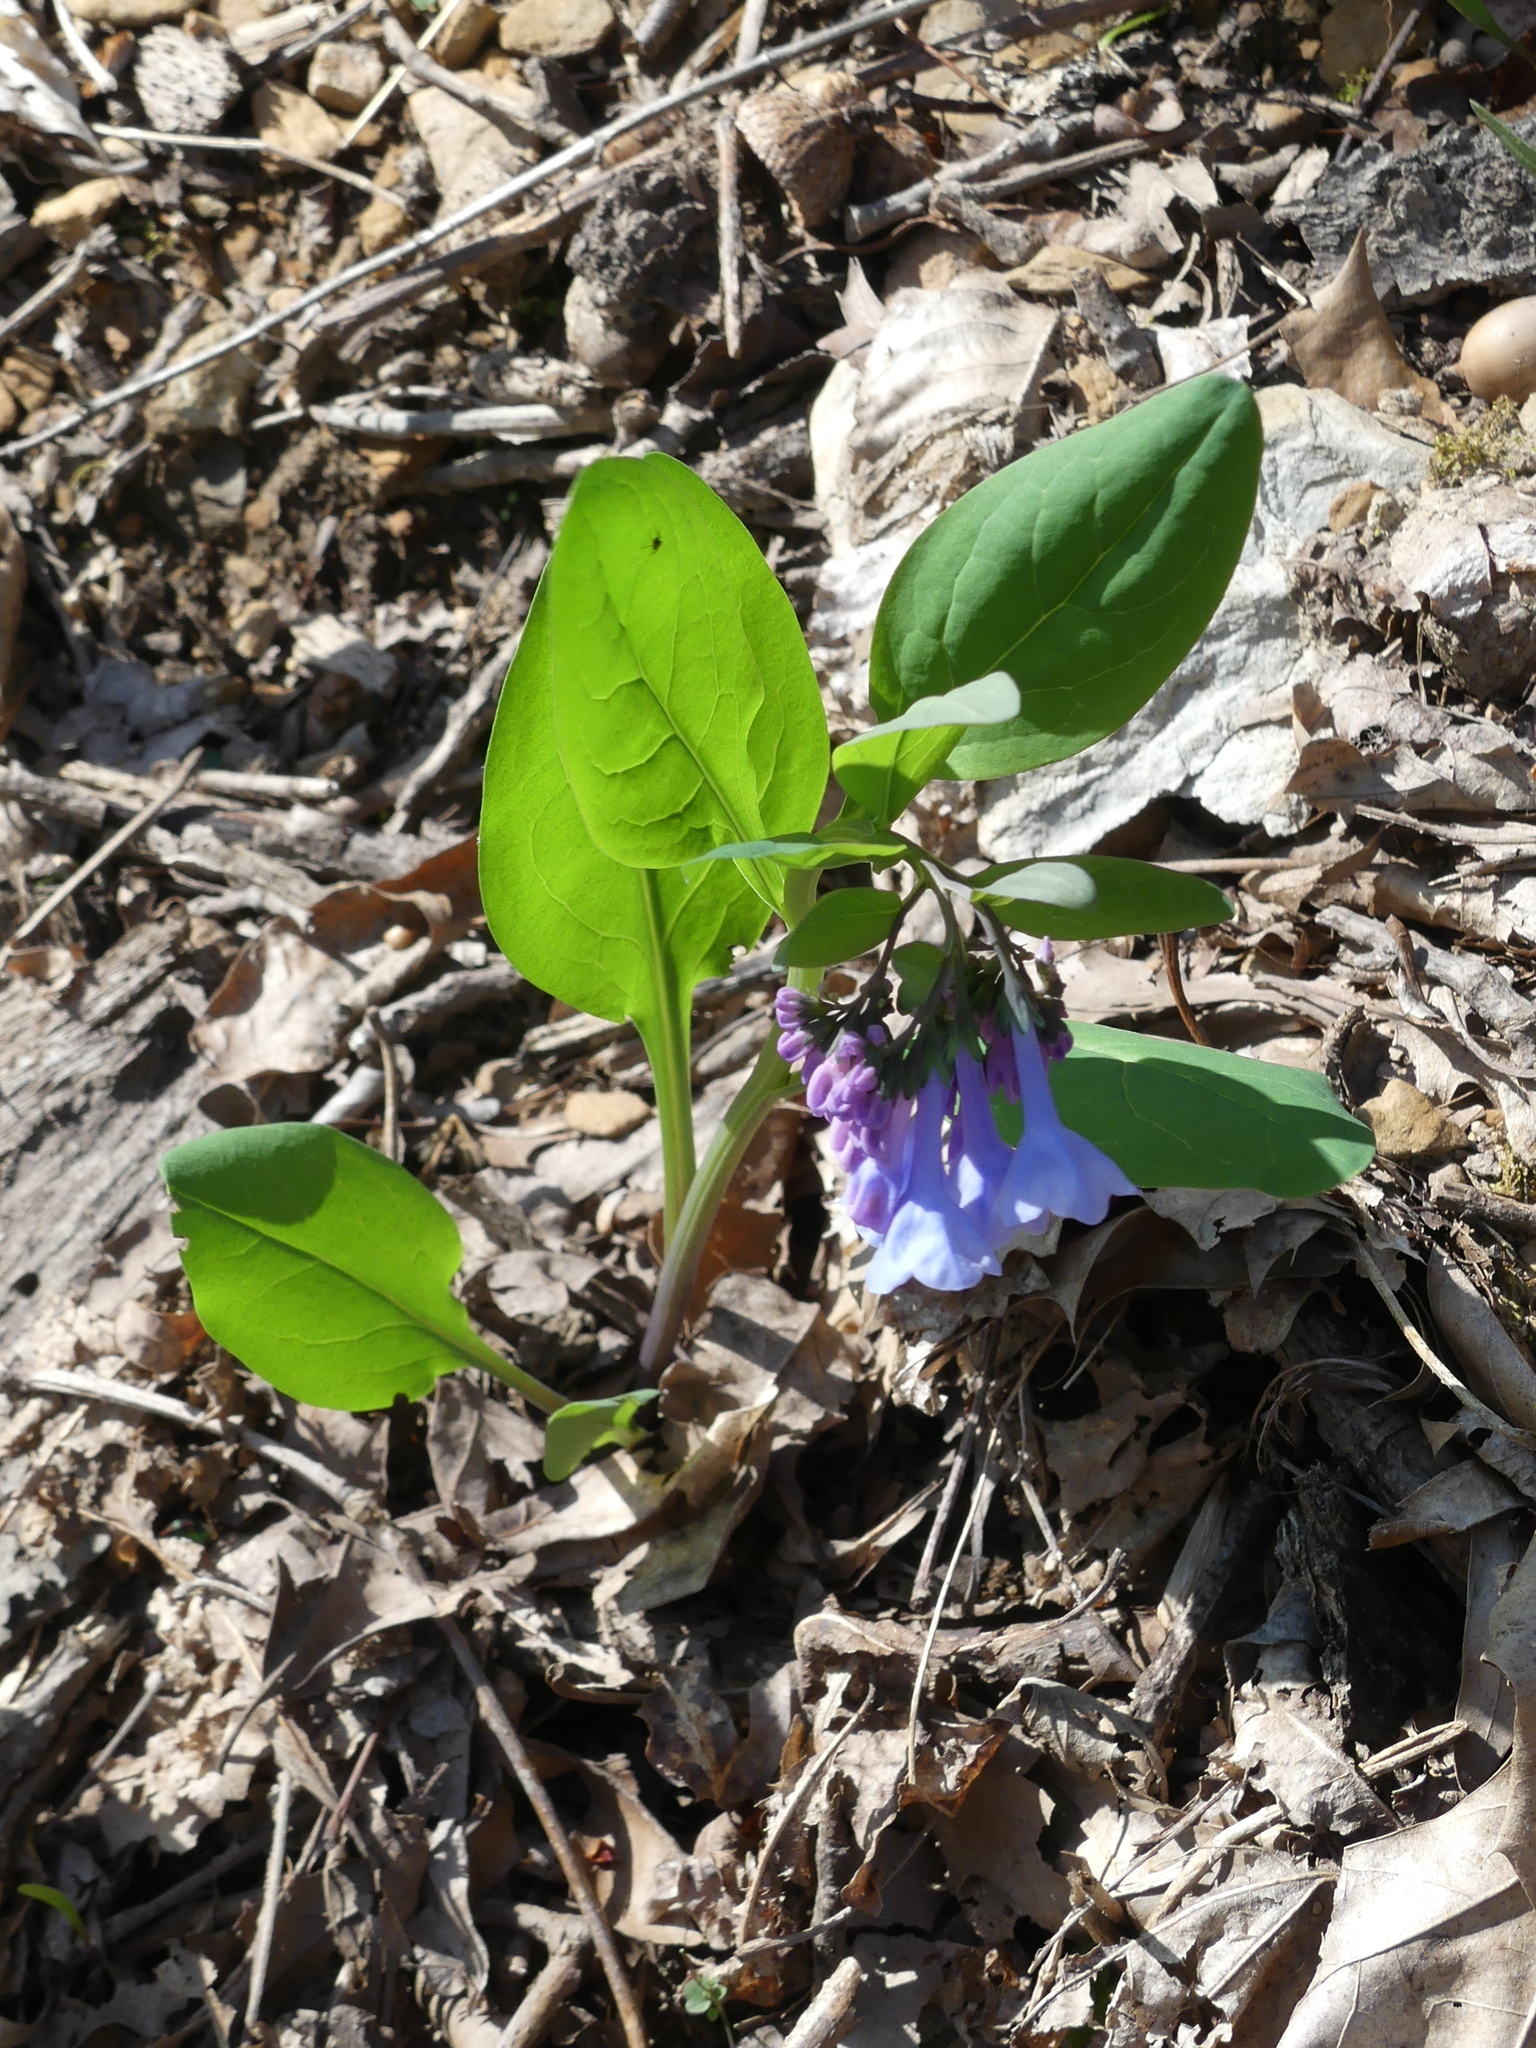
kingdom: Plantae
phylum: Tracheophyta
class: Magnoliopsida
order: Boraginales
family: Boraginaceae
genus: Mertensia
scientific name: Mertensia virginica
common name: Virginia bluebells
